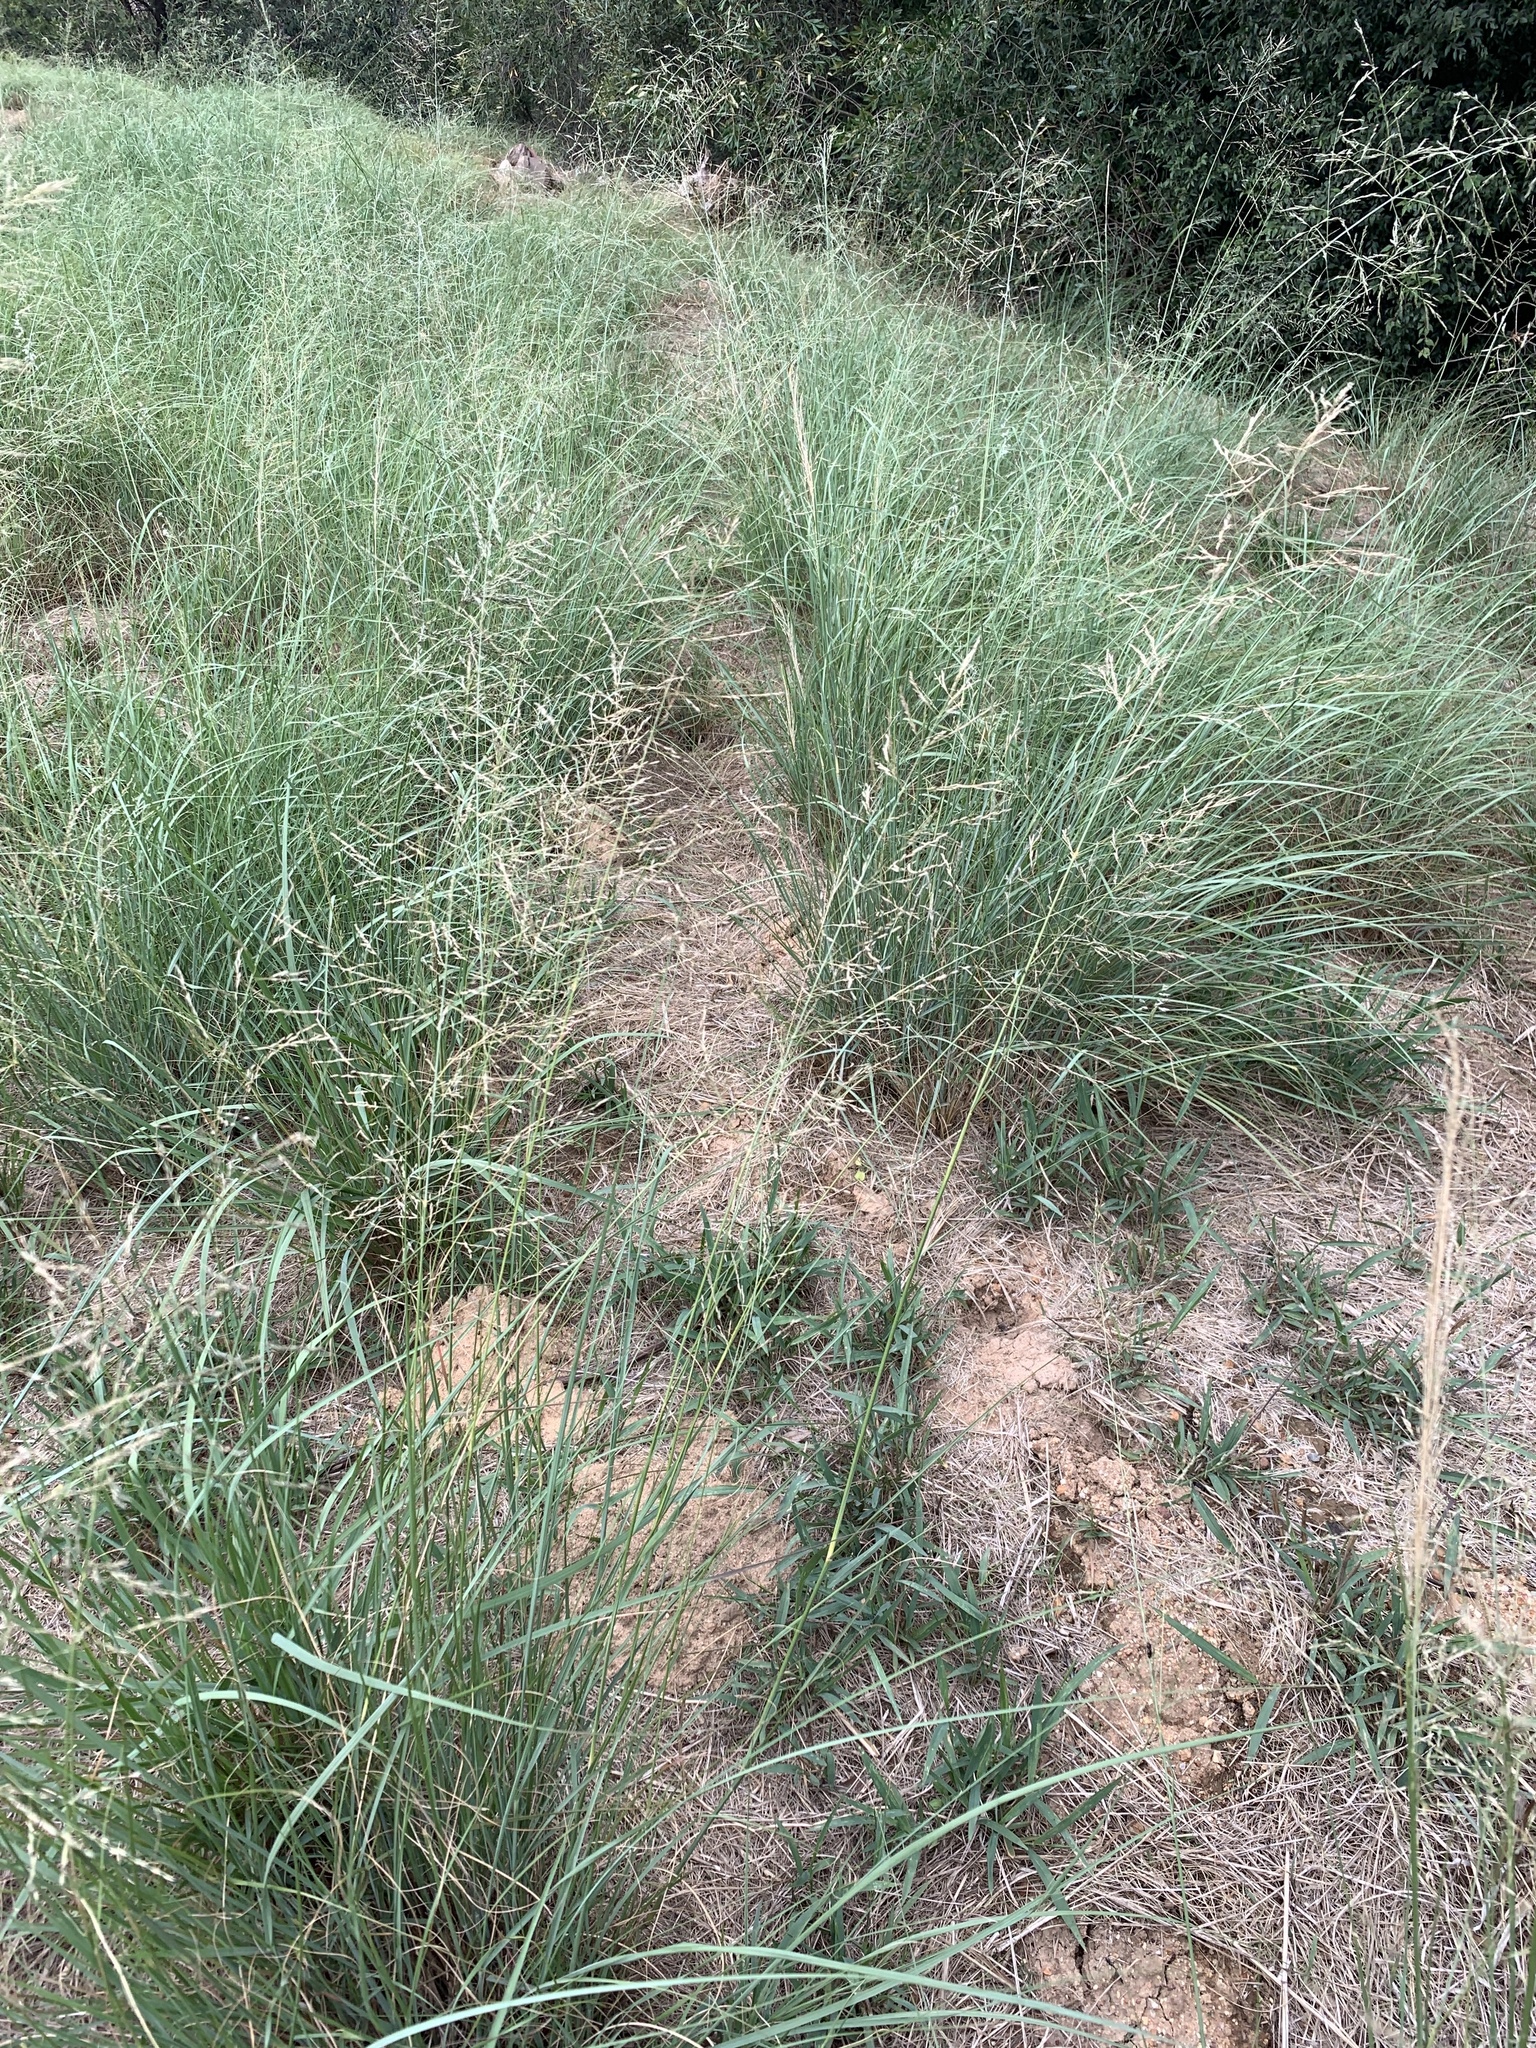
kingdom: Plantae
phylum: Tracheophyta
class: Liliopsida
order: Poales
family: Poaceae
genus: Eragrostis
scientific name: Eragrostis curvula
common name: African love-grass
